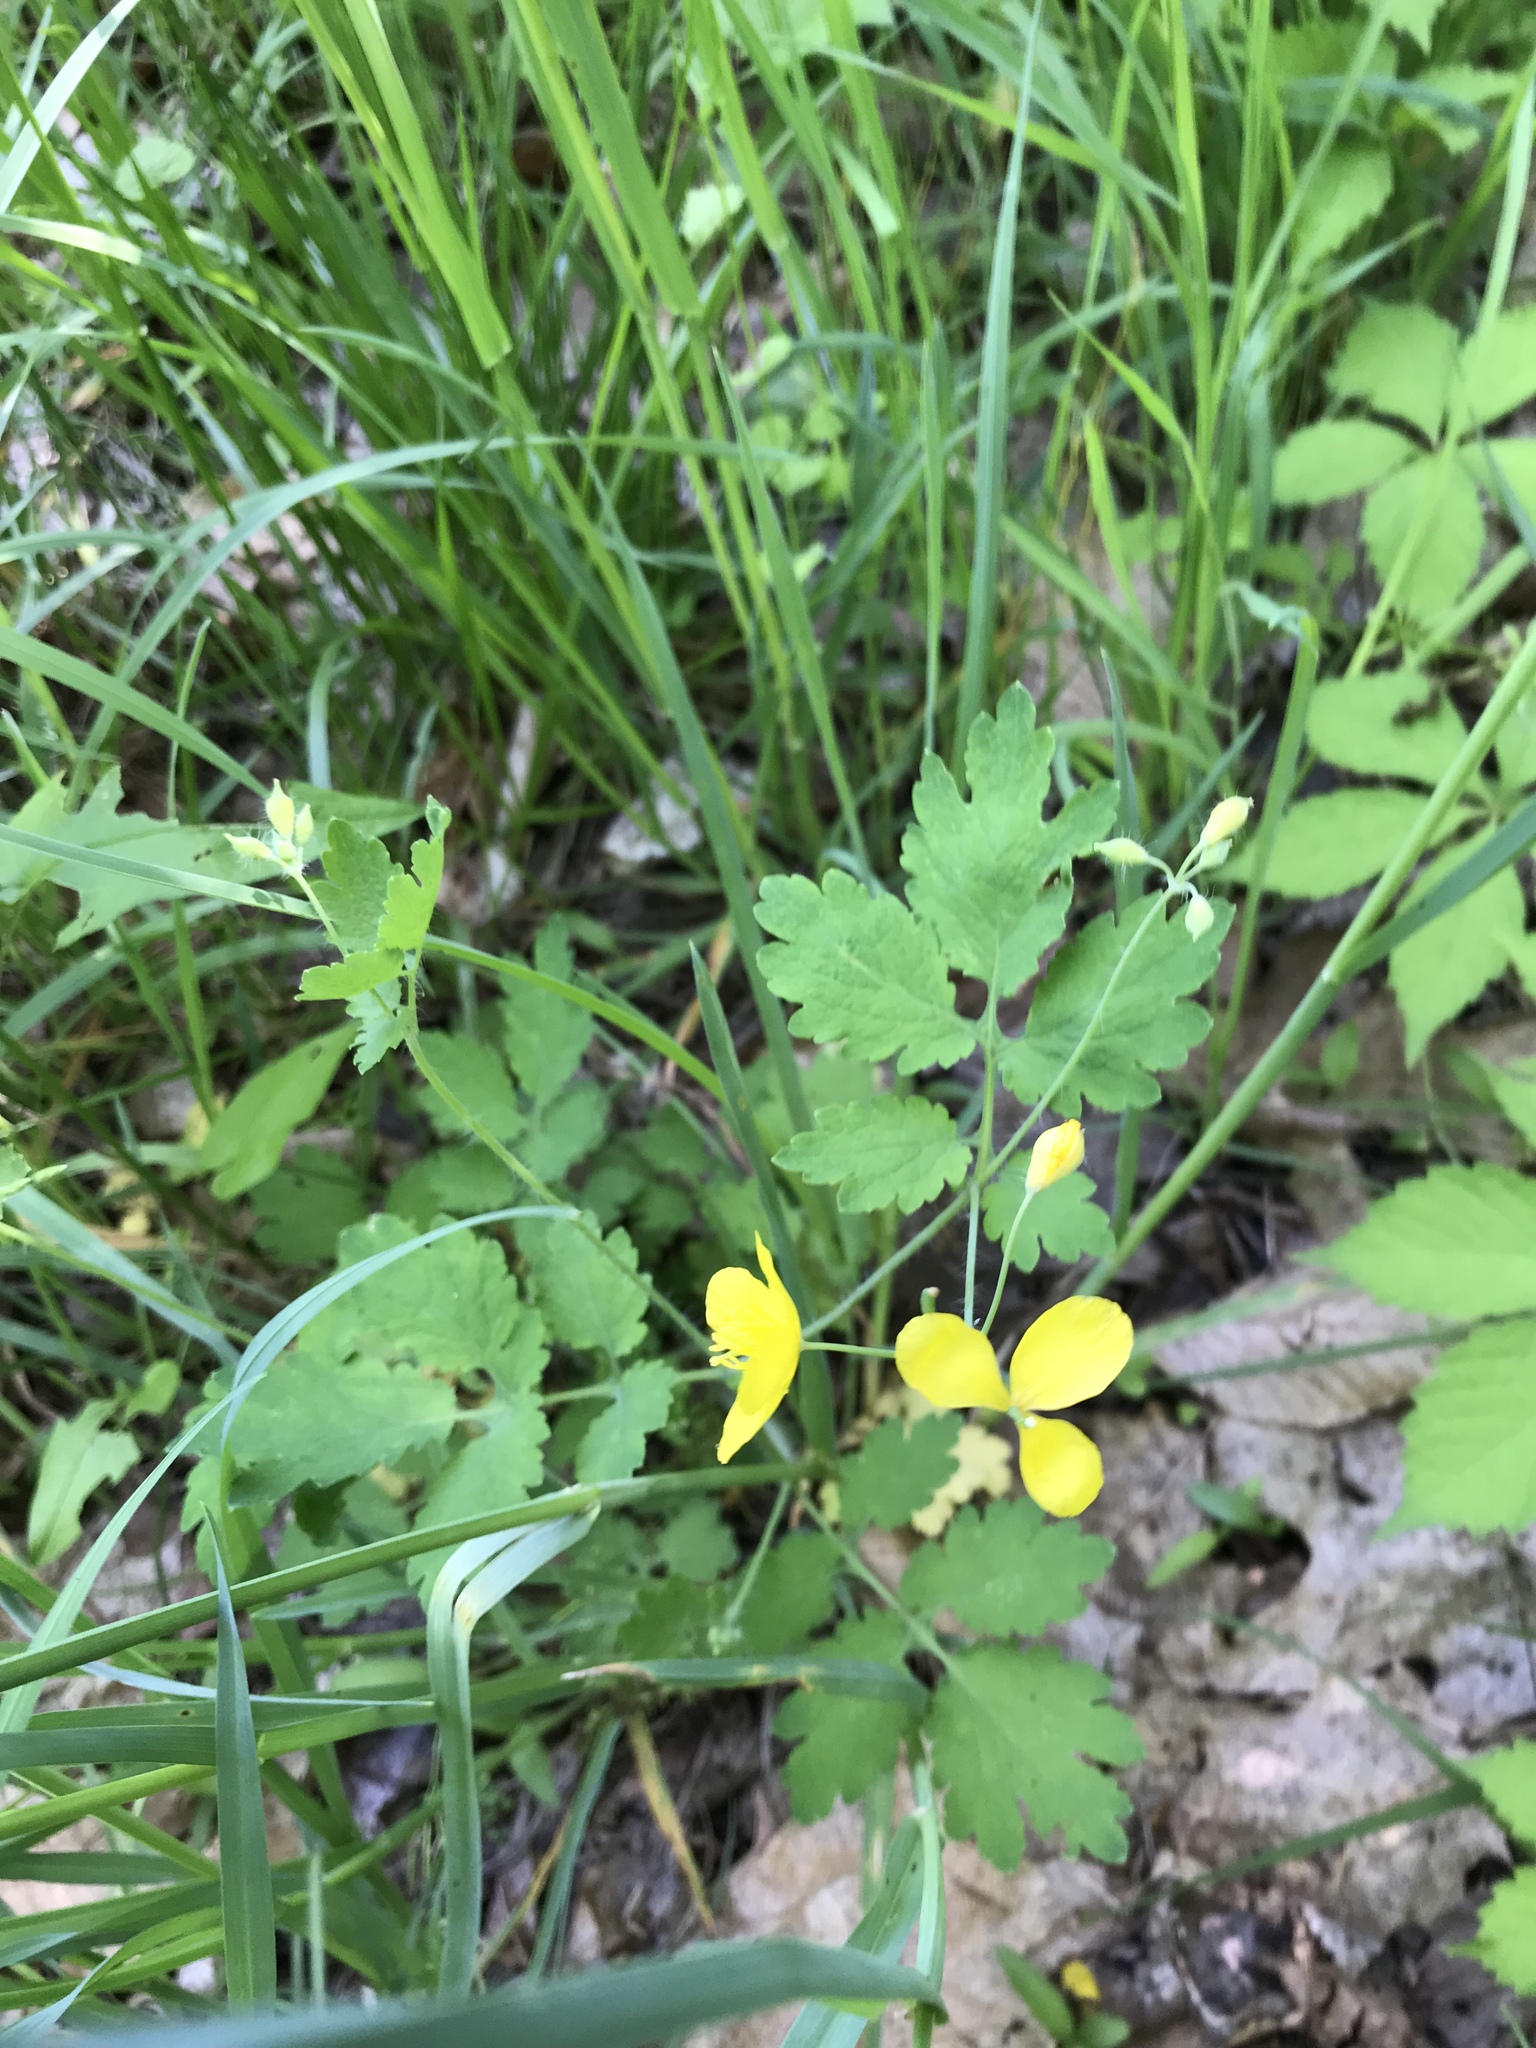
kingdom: Plantae
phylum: Tracheophyta
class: Magnoliopsida
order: Ranunculales
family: Papaveraceae
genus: Chelidonium
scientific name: Chelidonium majus
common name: Greater celandine
